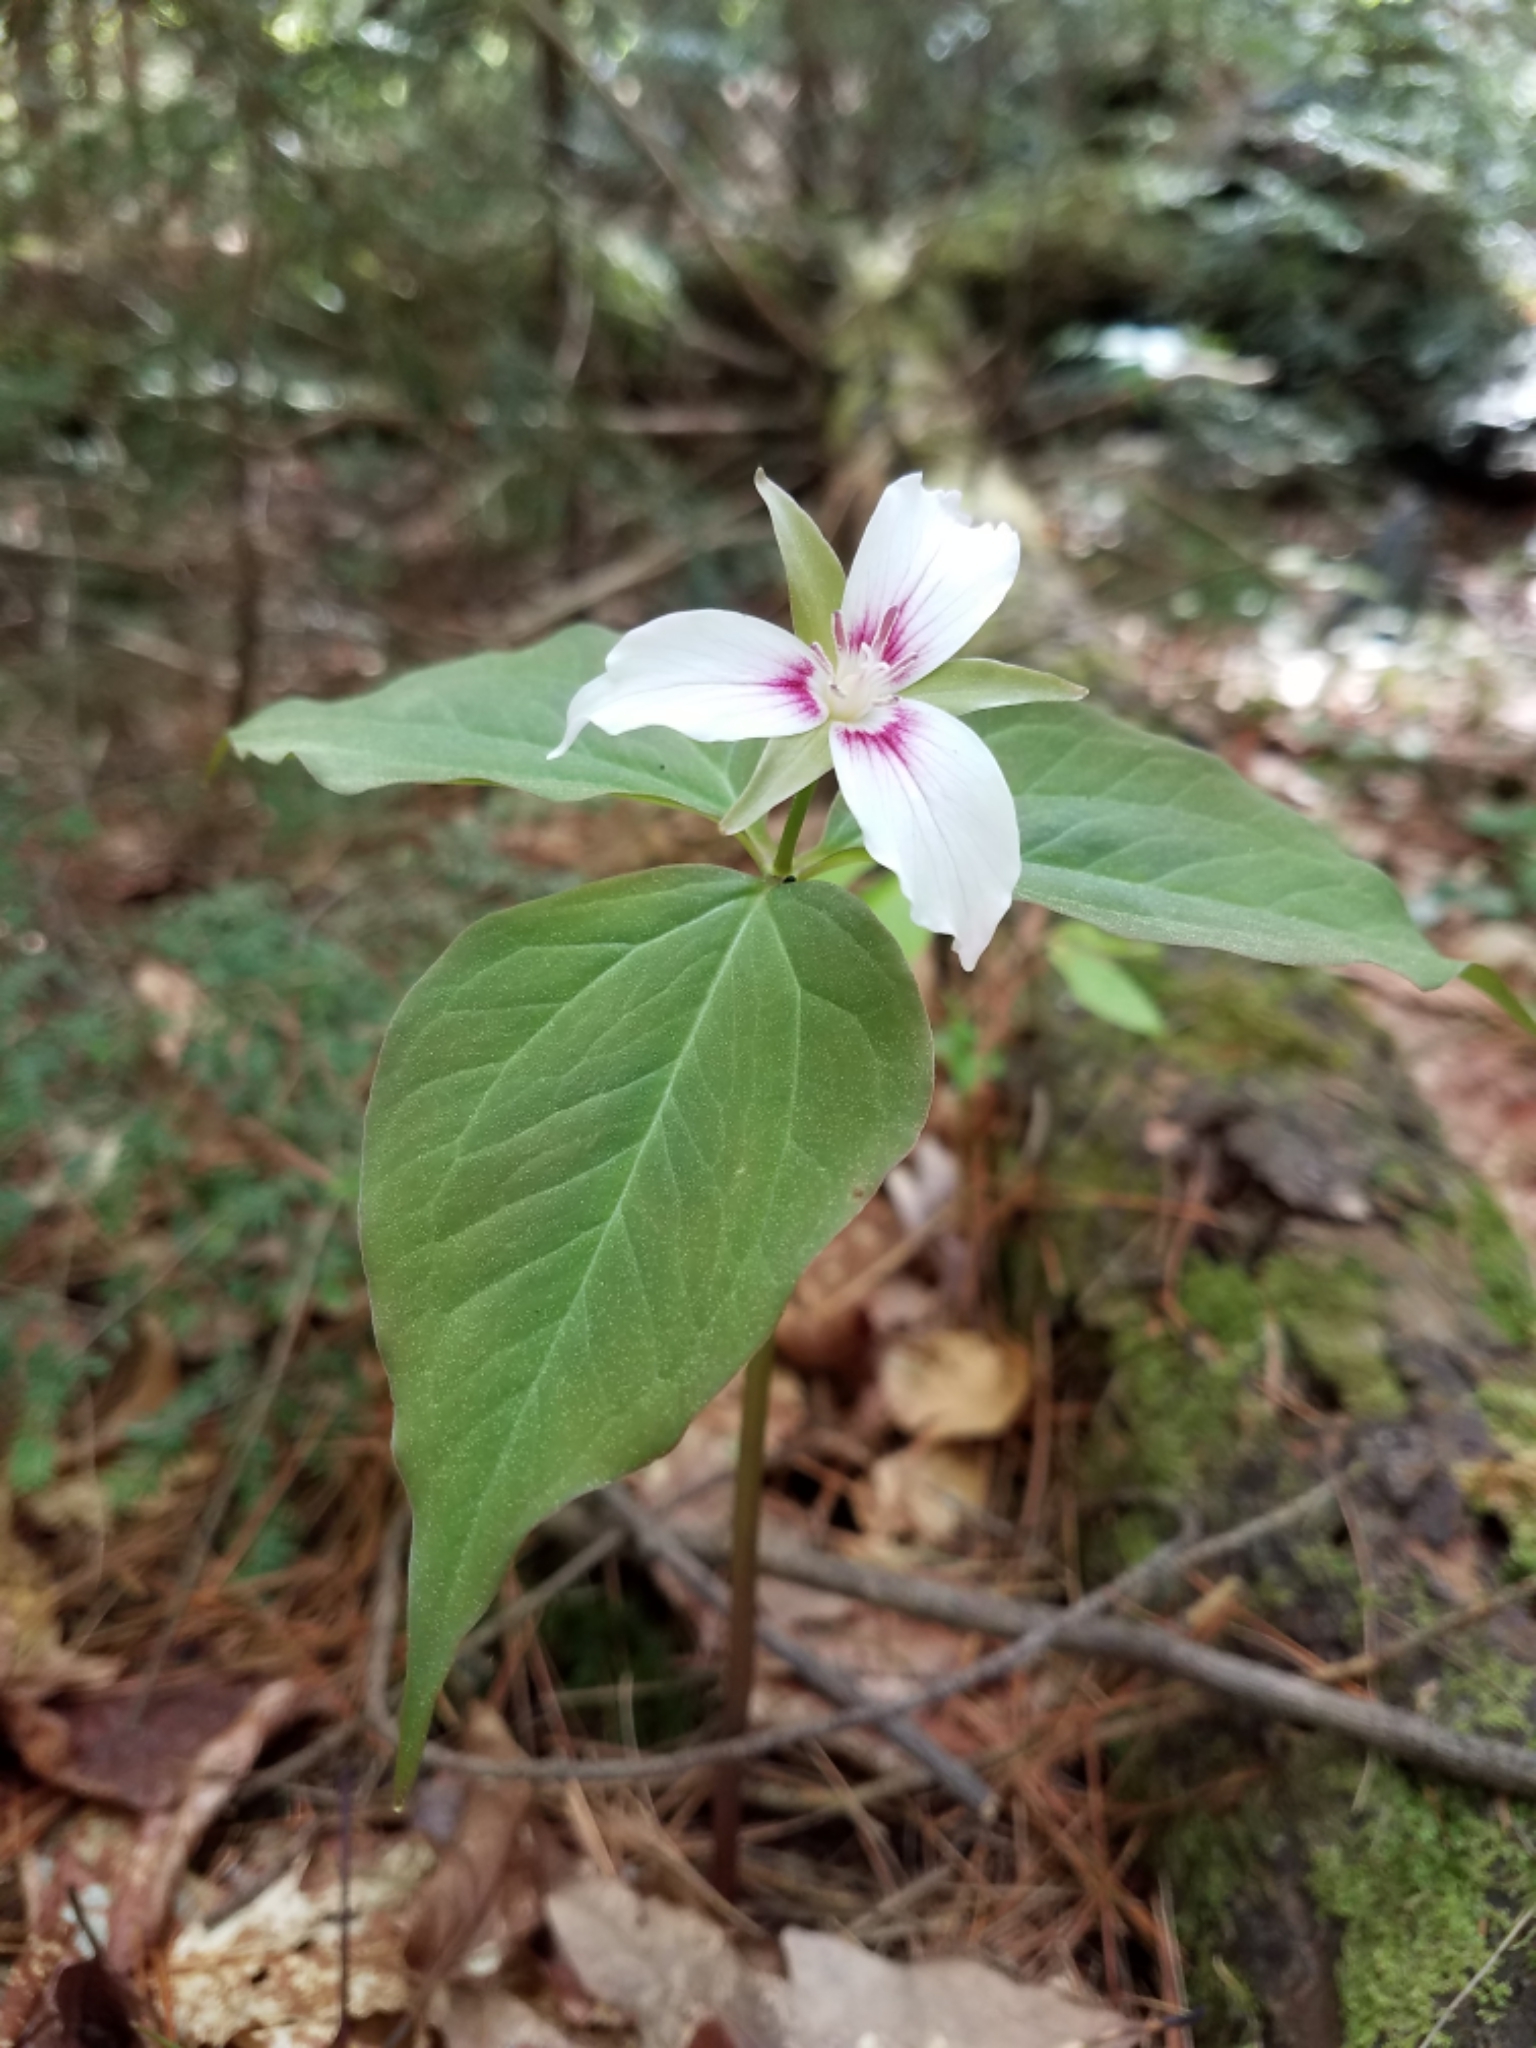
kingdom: Plantae
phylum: Tracheophyta
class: Liliopsida
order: Liliales
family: Melanthiaceae
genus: Trillium
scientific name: Trillium undulatum
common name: Paint trillium
